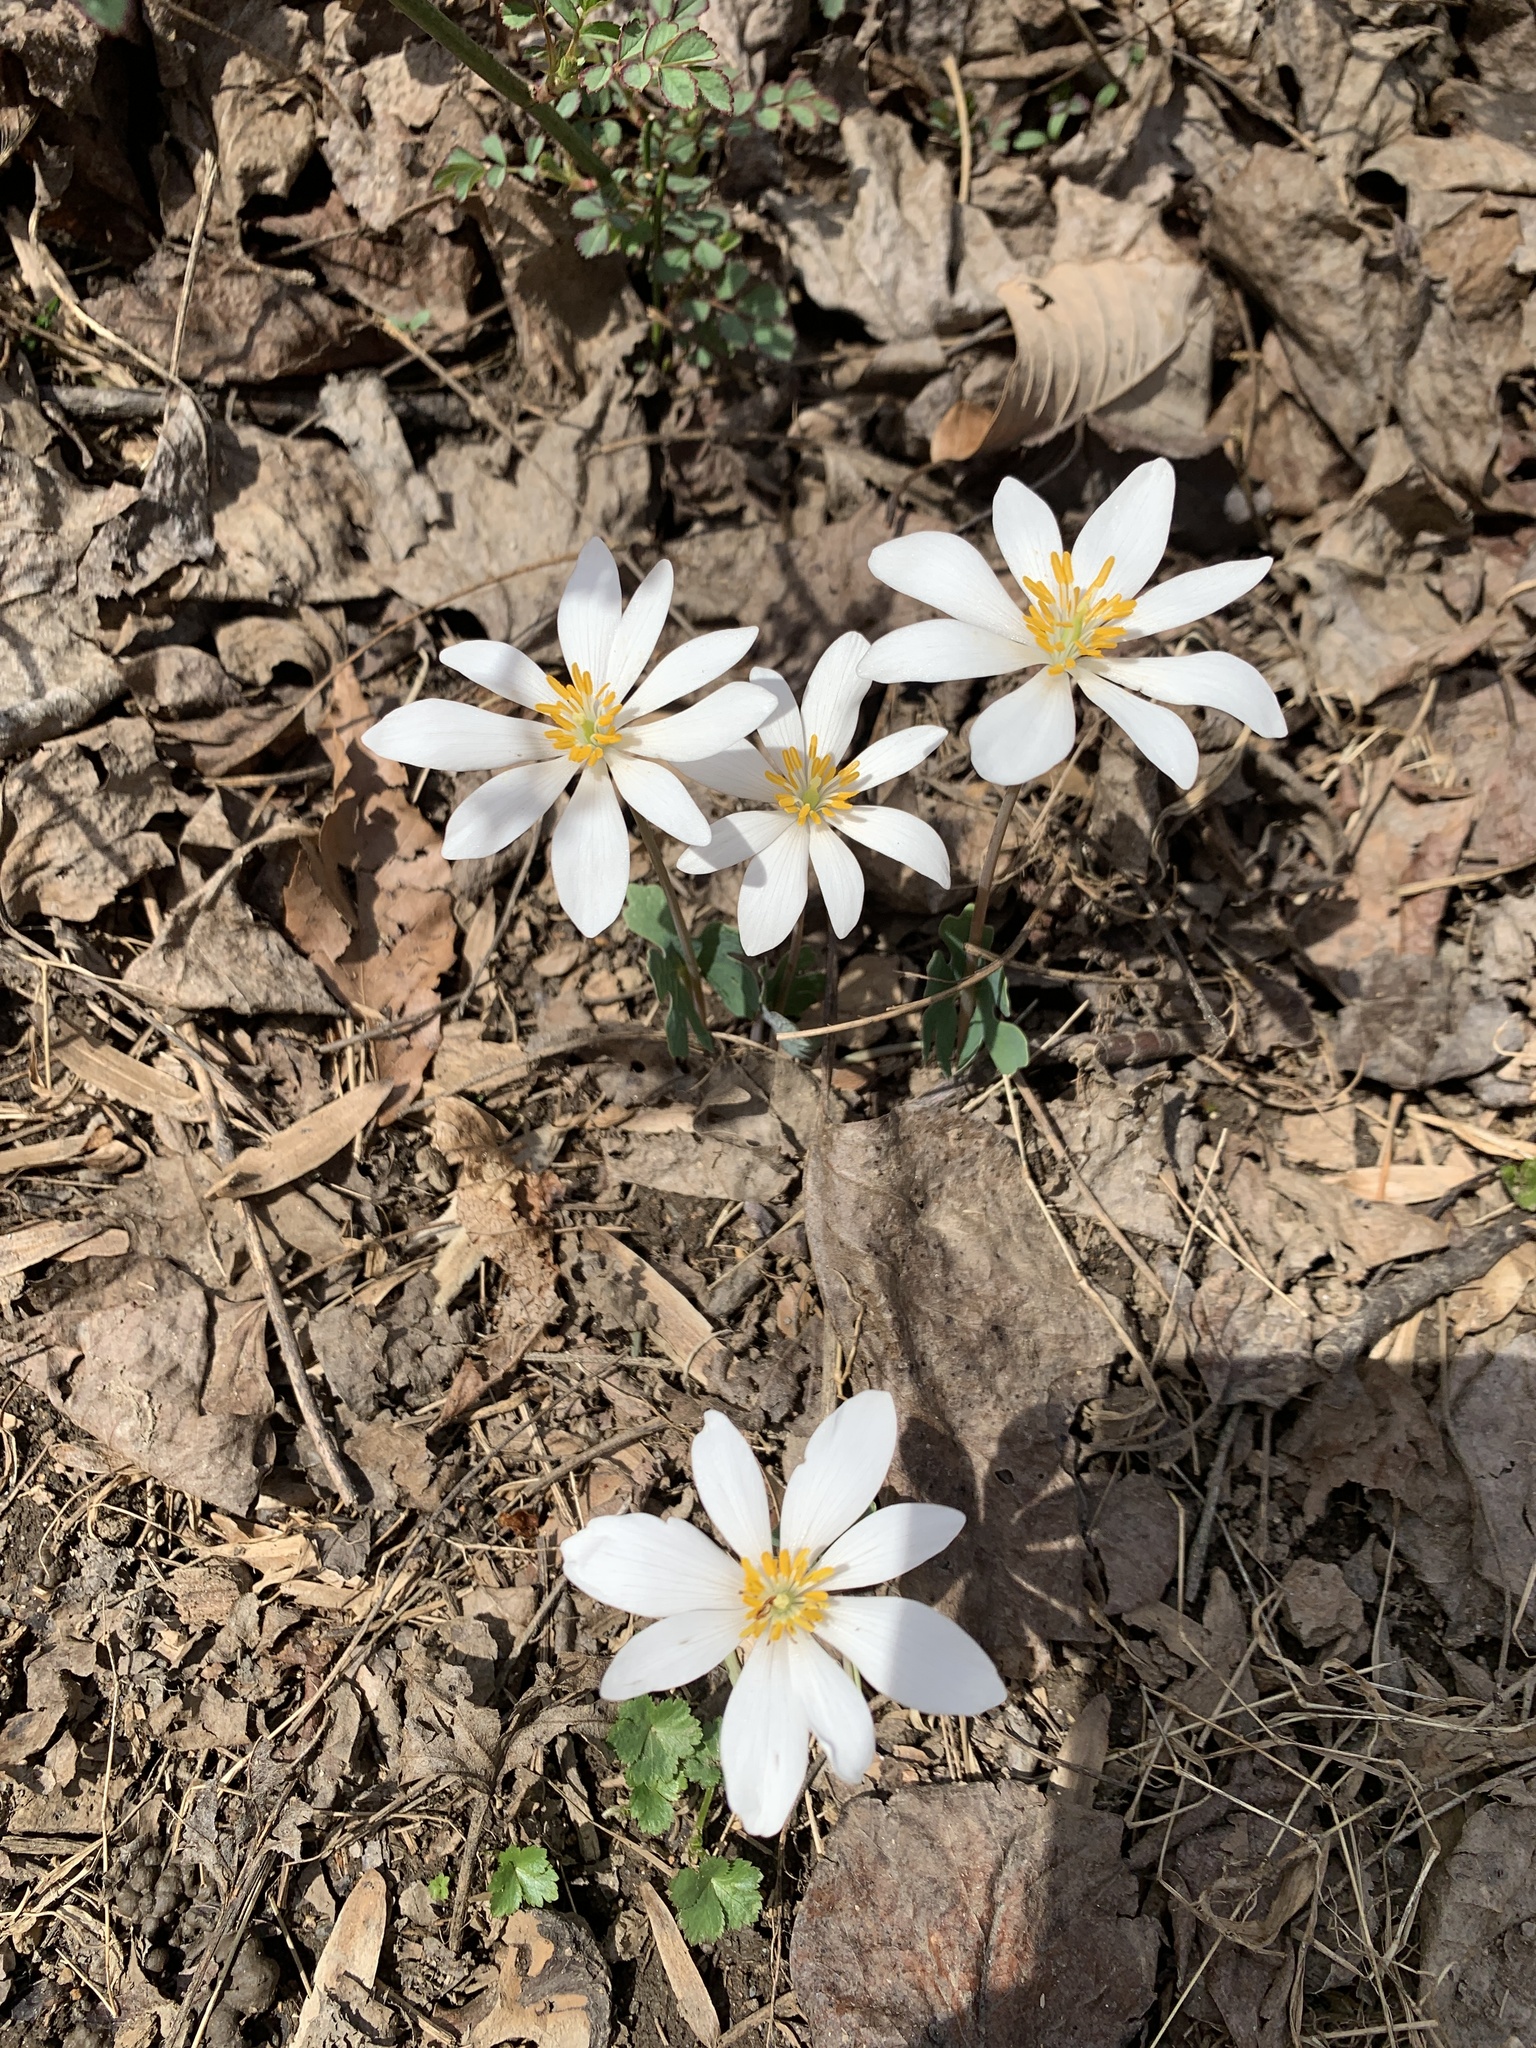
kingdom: Plantae
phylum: Tracheophyta
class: Magnoliopsida
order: Ranunculales
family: Papaveraceae
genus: Sanguinaria
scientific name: Sanguinaria canadensis
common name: Bloodroot
